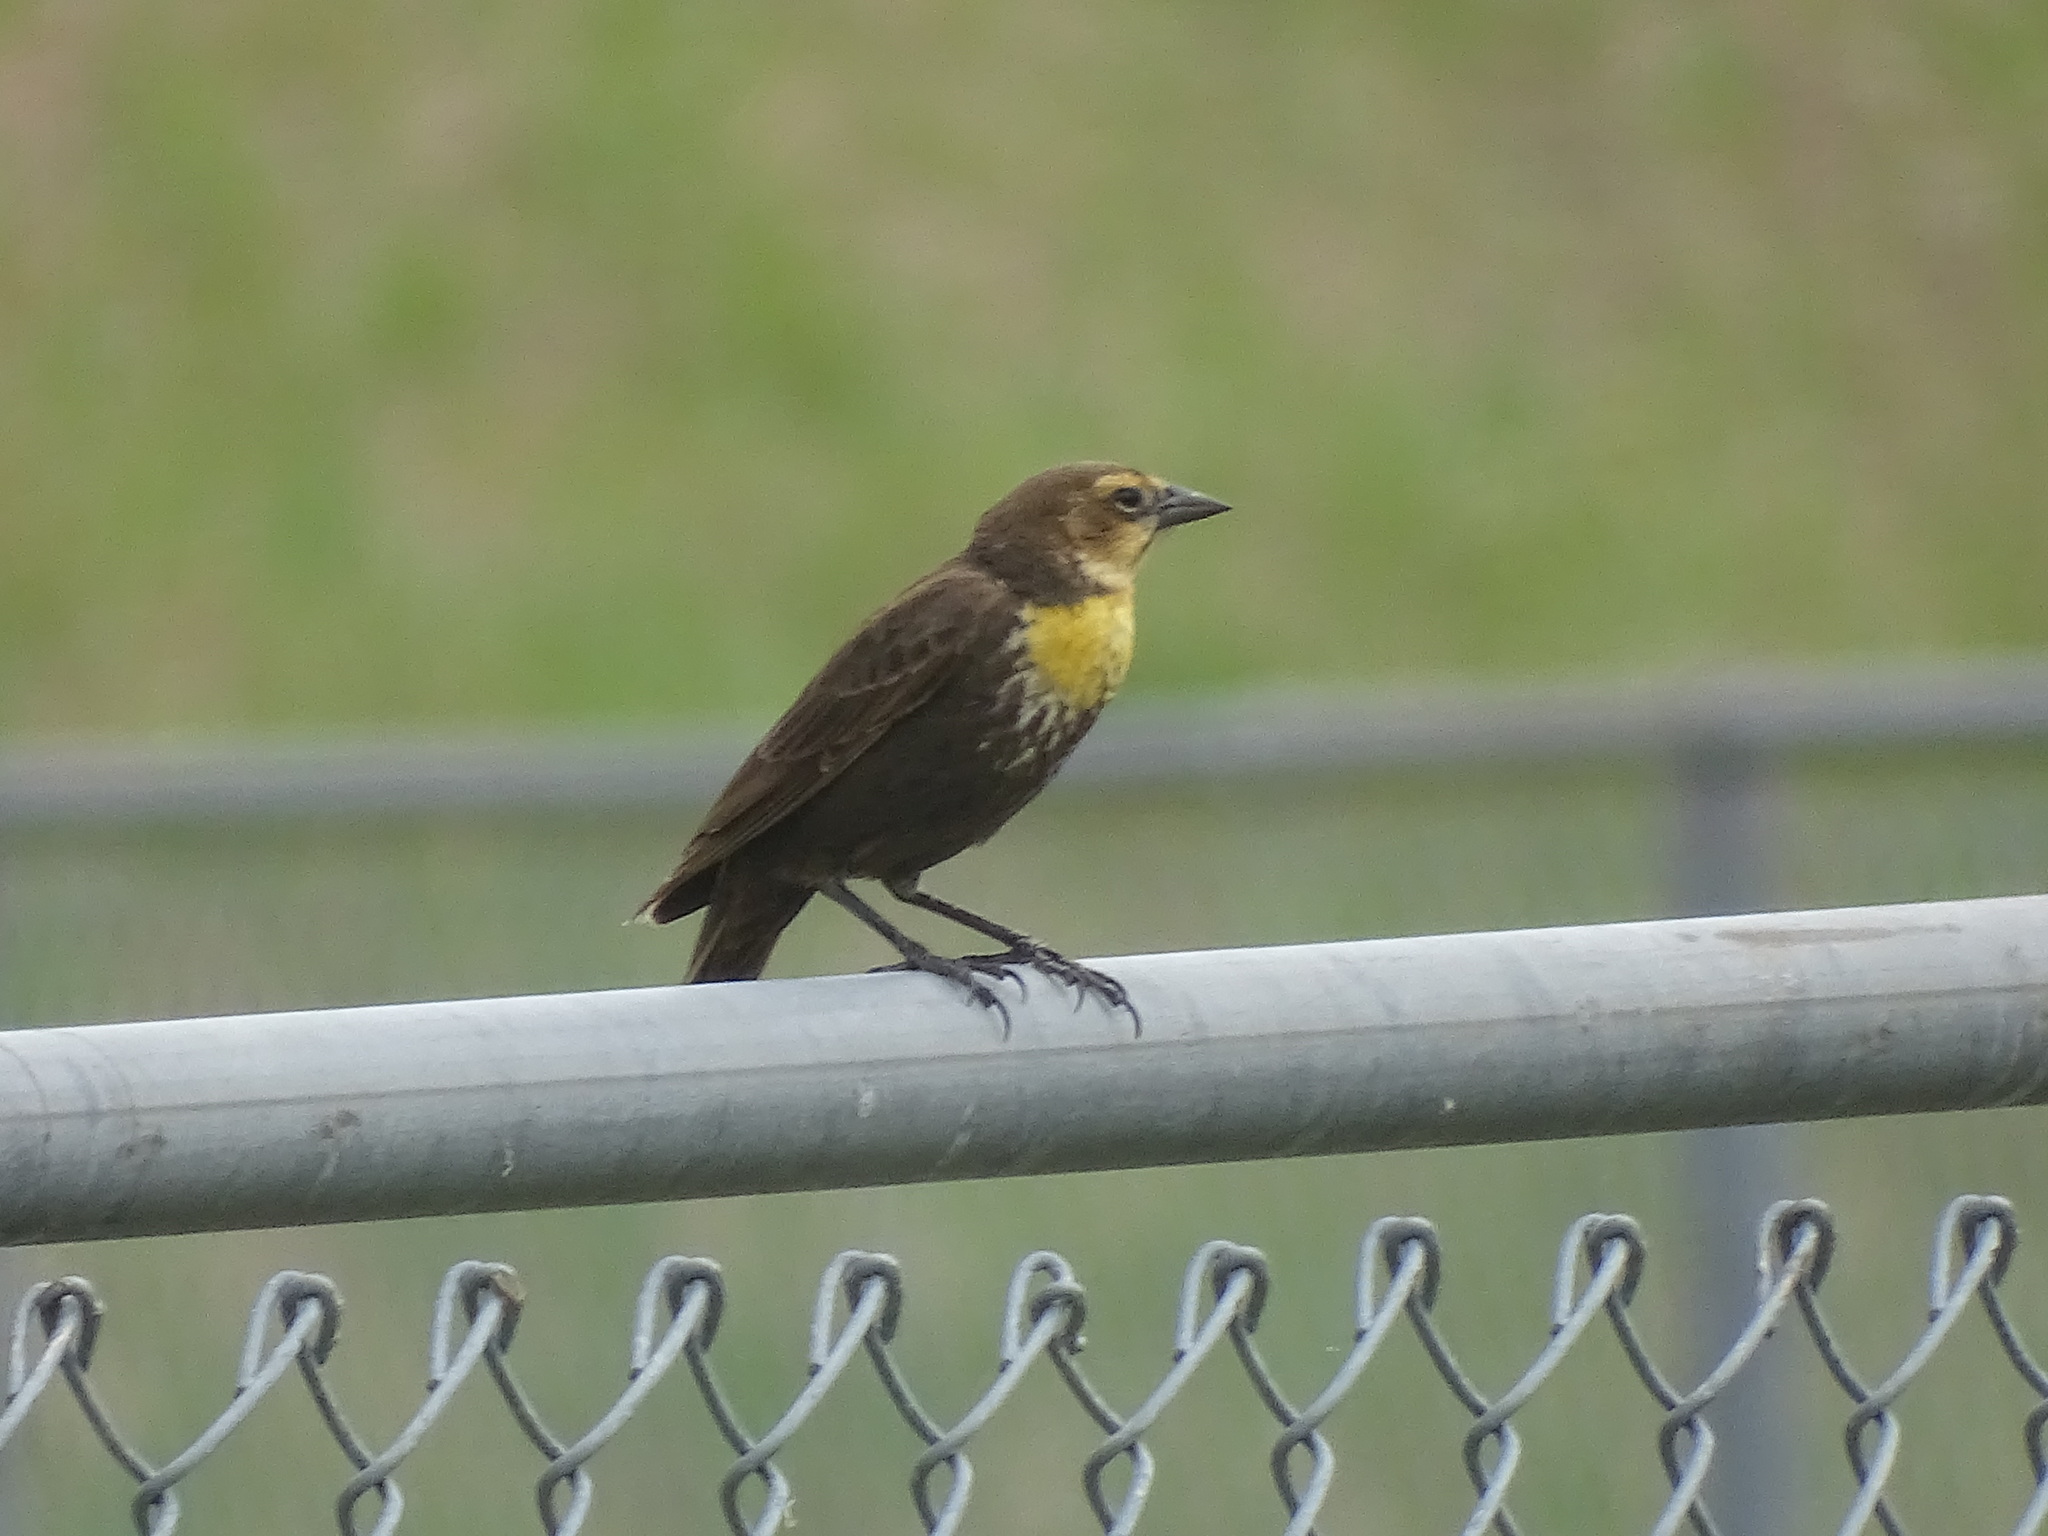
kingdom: Animalia
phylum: Chordata
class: Aves
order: Passeriformes
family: Icteridae
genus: Xanthocephalus
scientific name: Xanthocephalus xanthocephalus
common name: Yellow-headed blackbird
